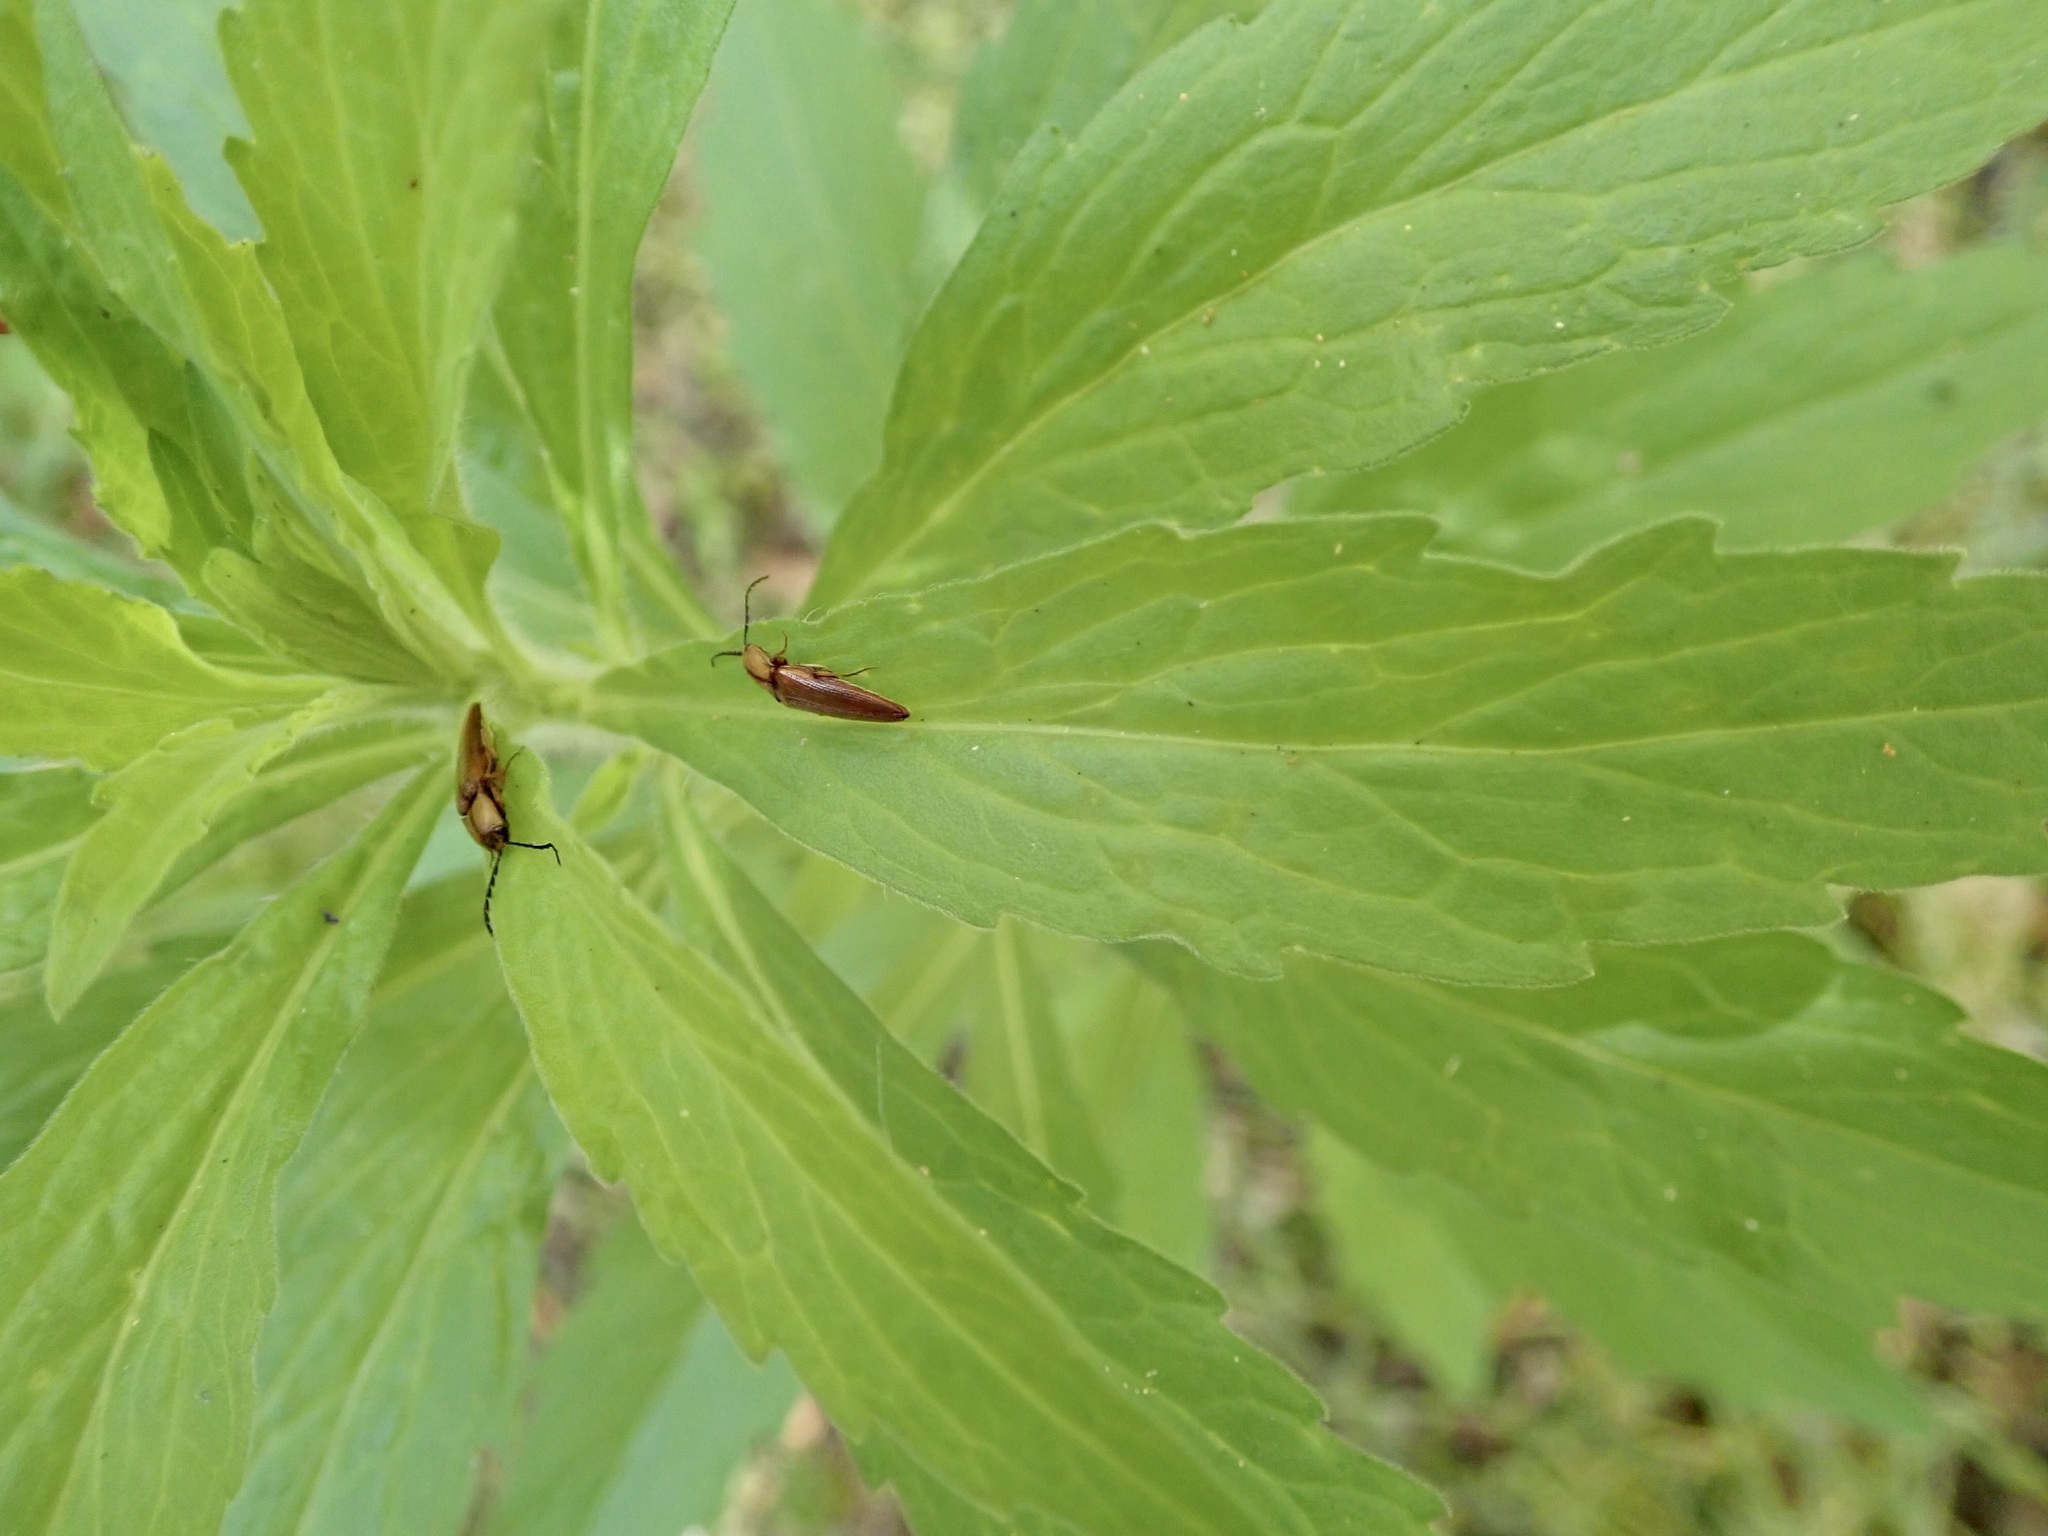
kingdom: Animalia
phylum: Arthropoda
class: Insecta
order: Coleoptera
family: Elateridae
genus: Sphaenelater
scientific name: Sphaenelater
